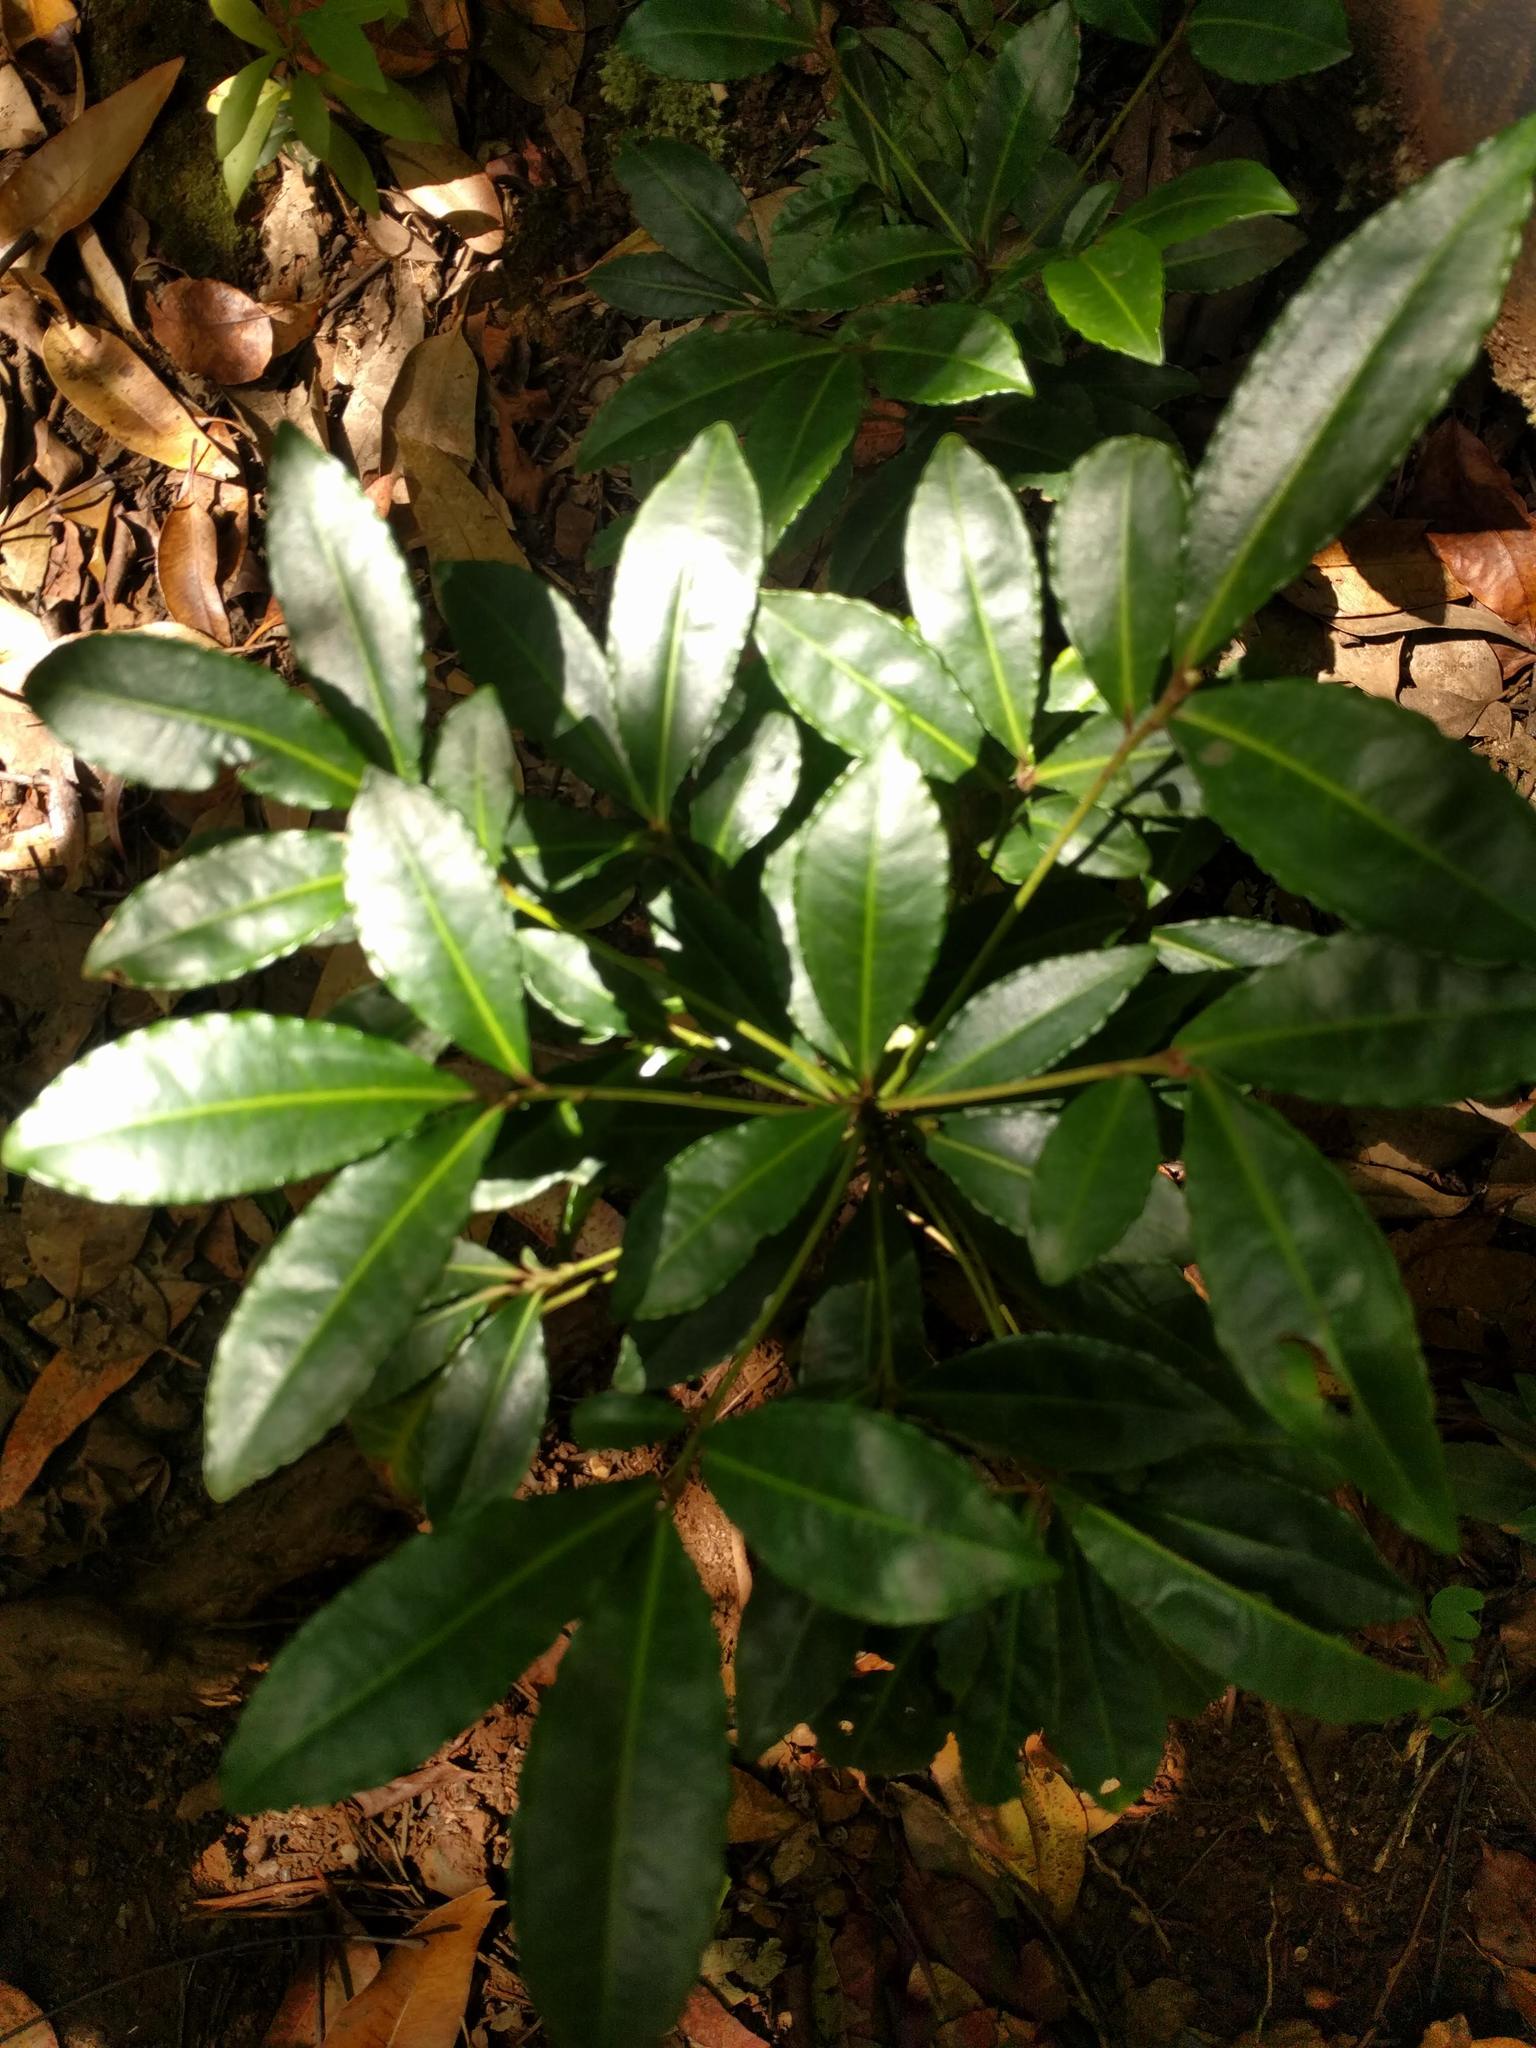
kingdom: Plantae
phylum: Tracheophyta
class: Magnoliopsida
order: Ericales
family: Primulaceae
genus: Ardisia
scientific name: Ardisia crenata
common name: Hen's eyes
